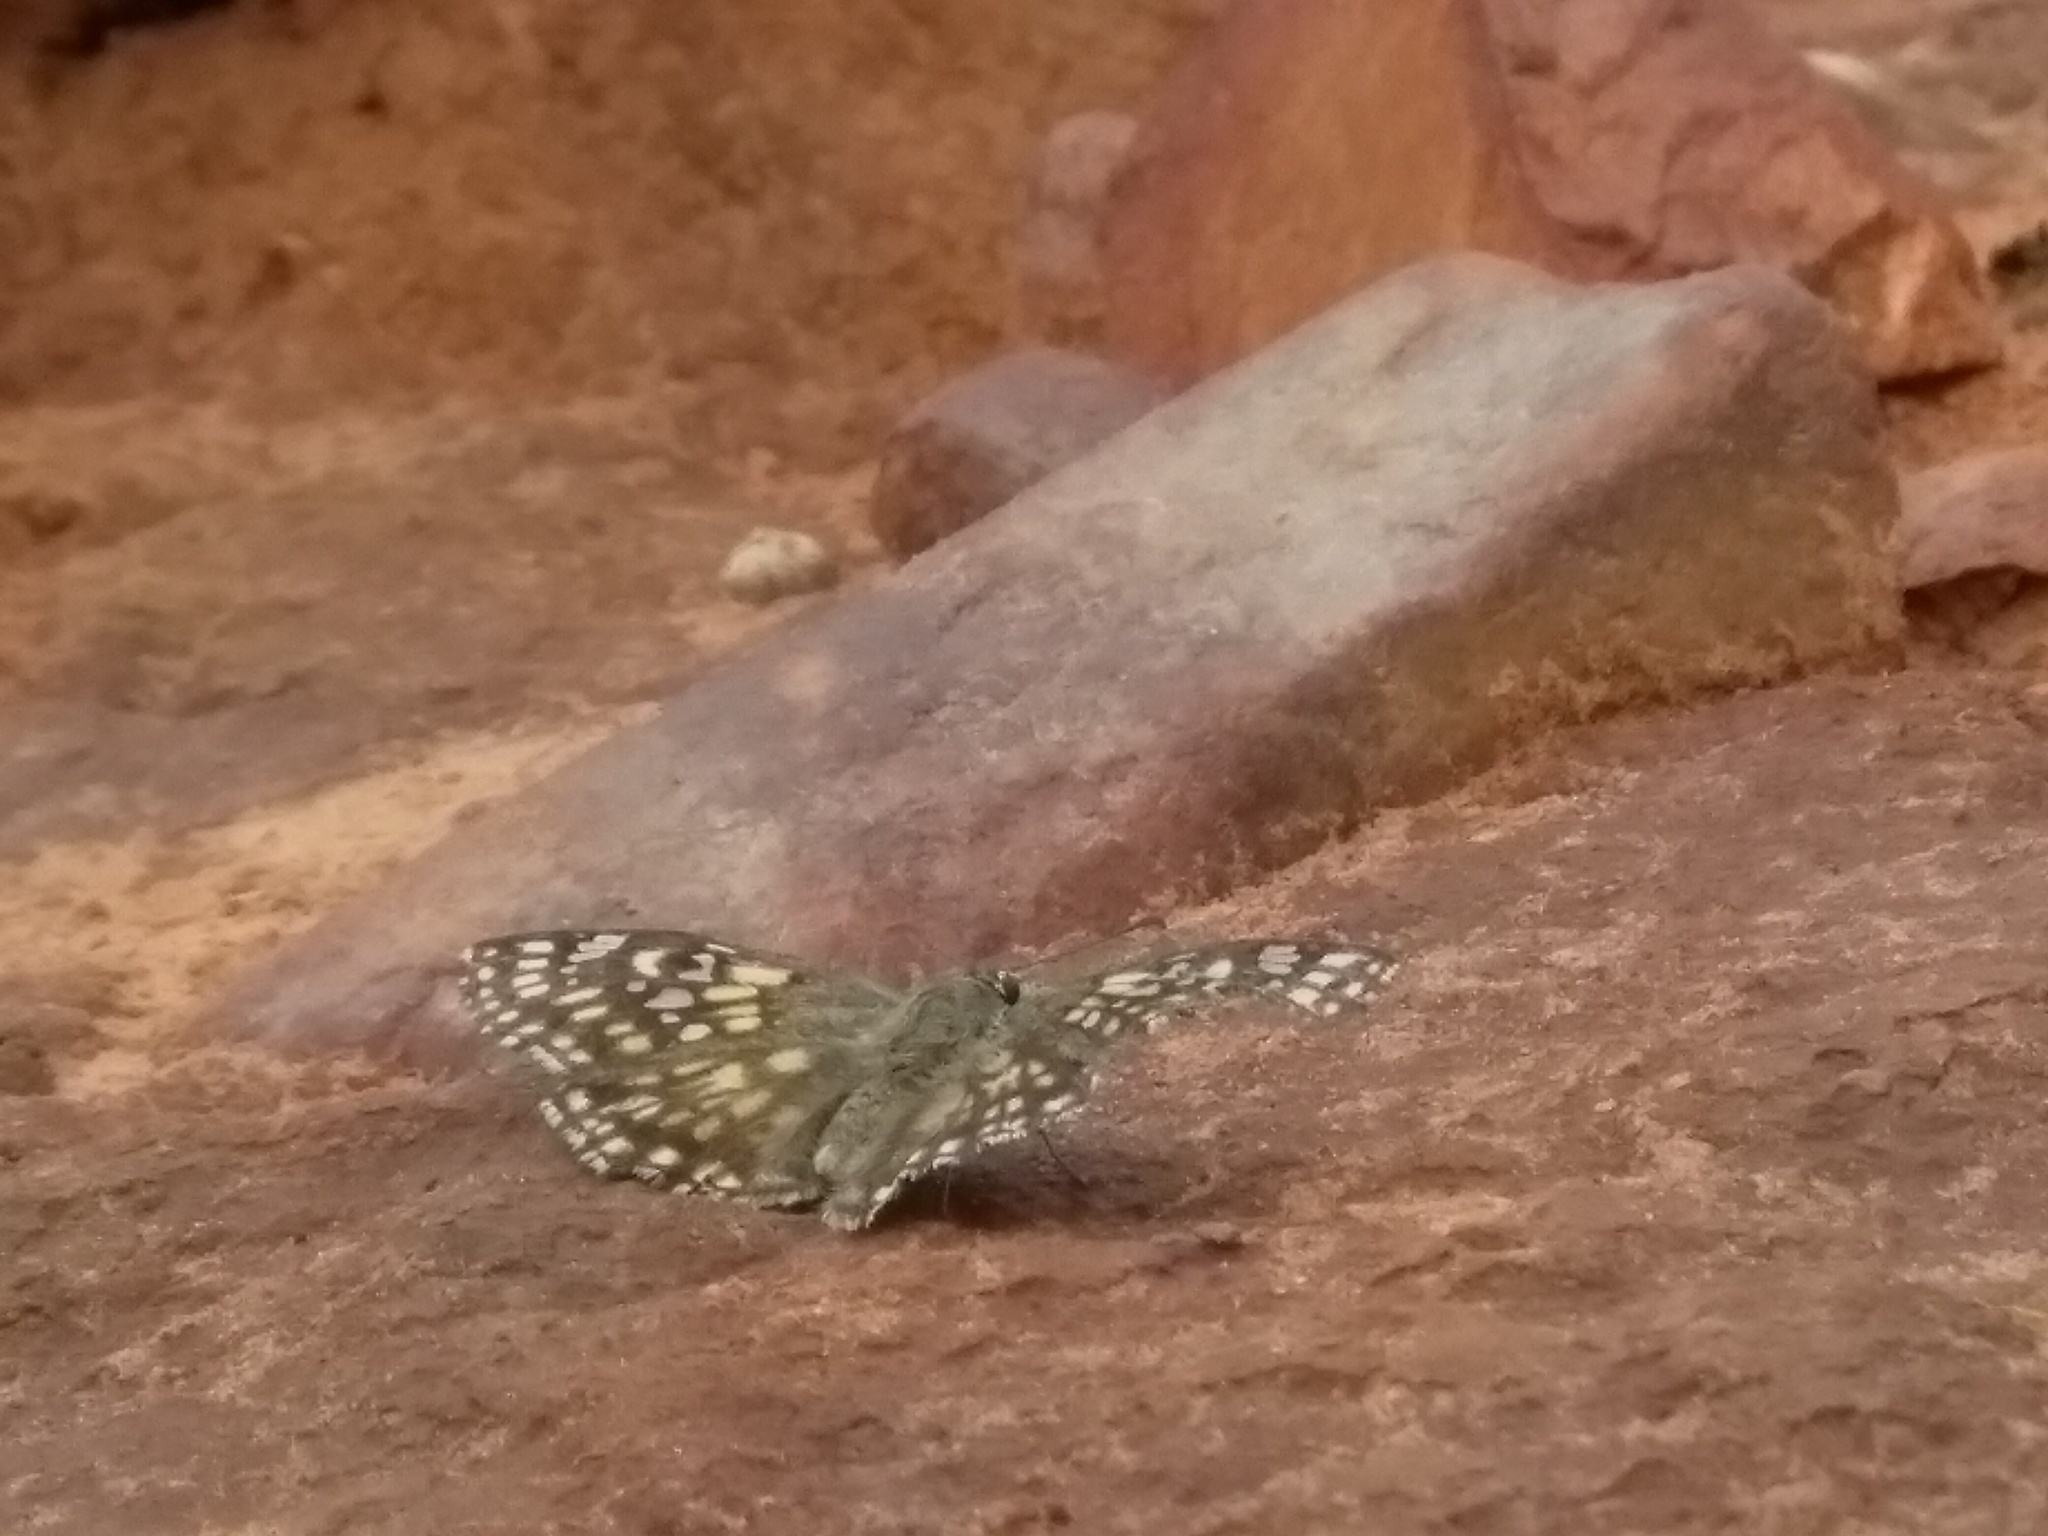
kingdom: Animalia
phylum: Arthropoda
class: Insecta
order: Lepidoptera
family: Hesperiidae
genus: Caprona
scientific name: Caprona alida
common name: Spotted angle
